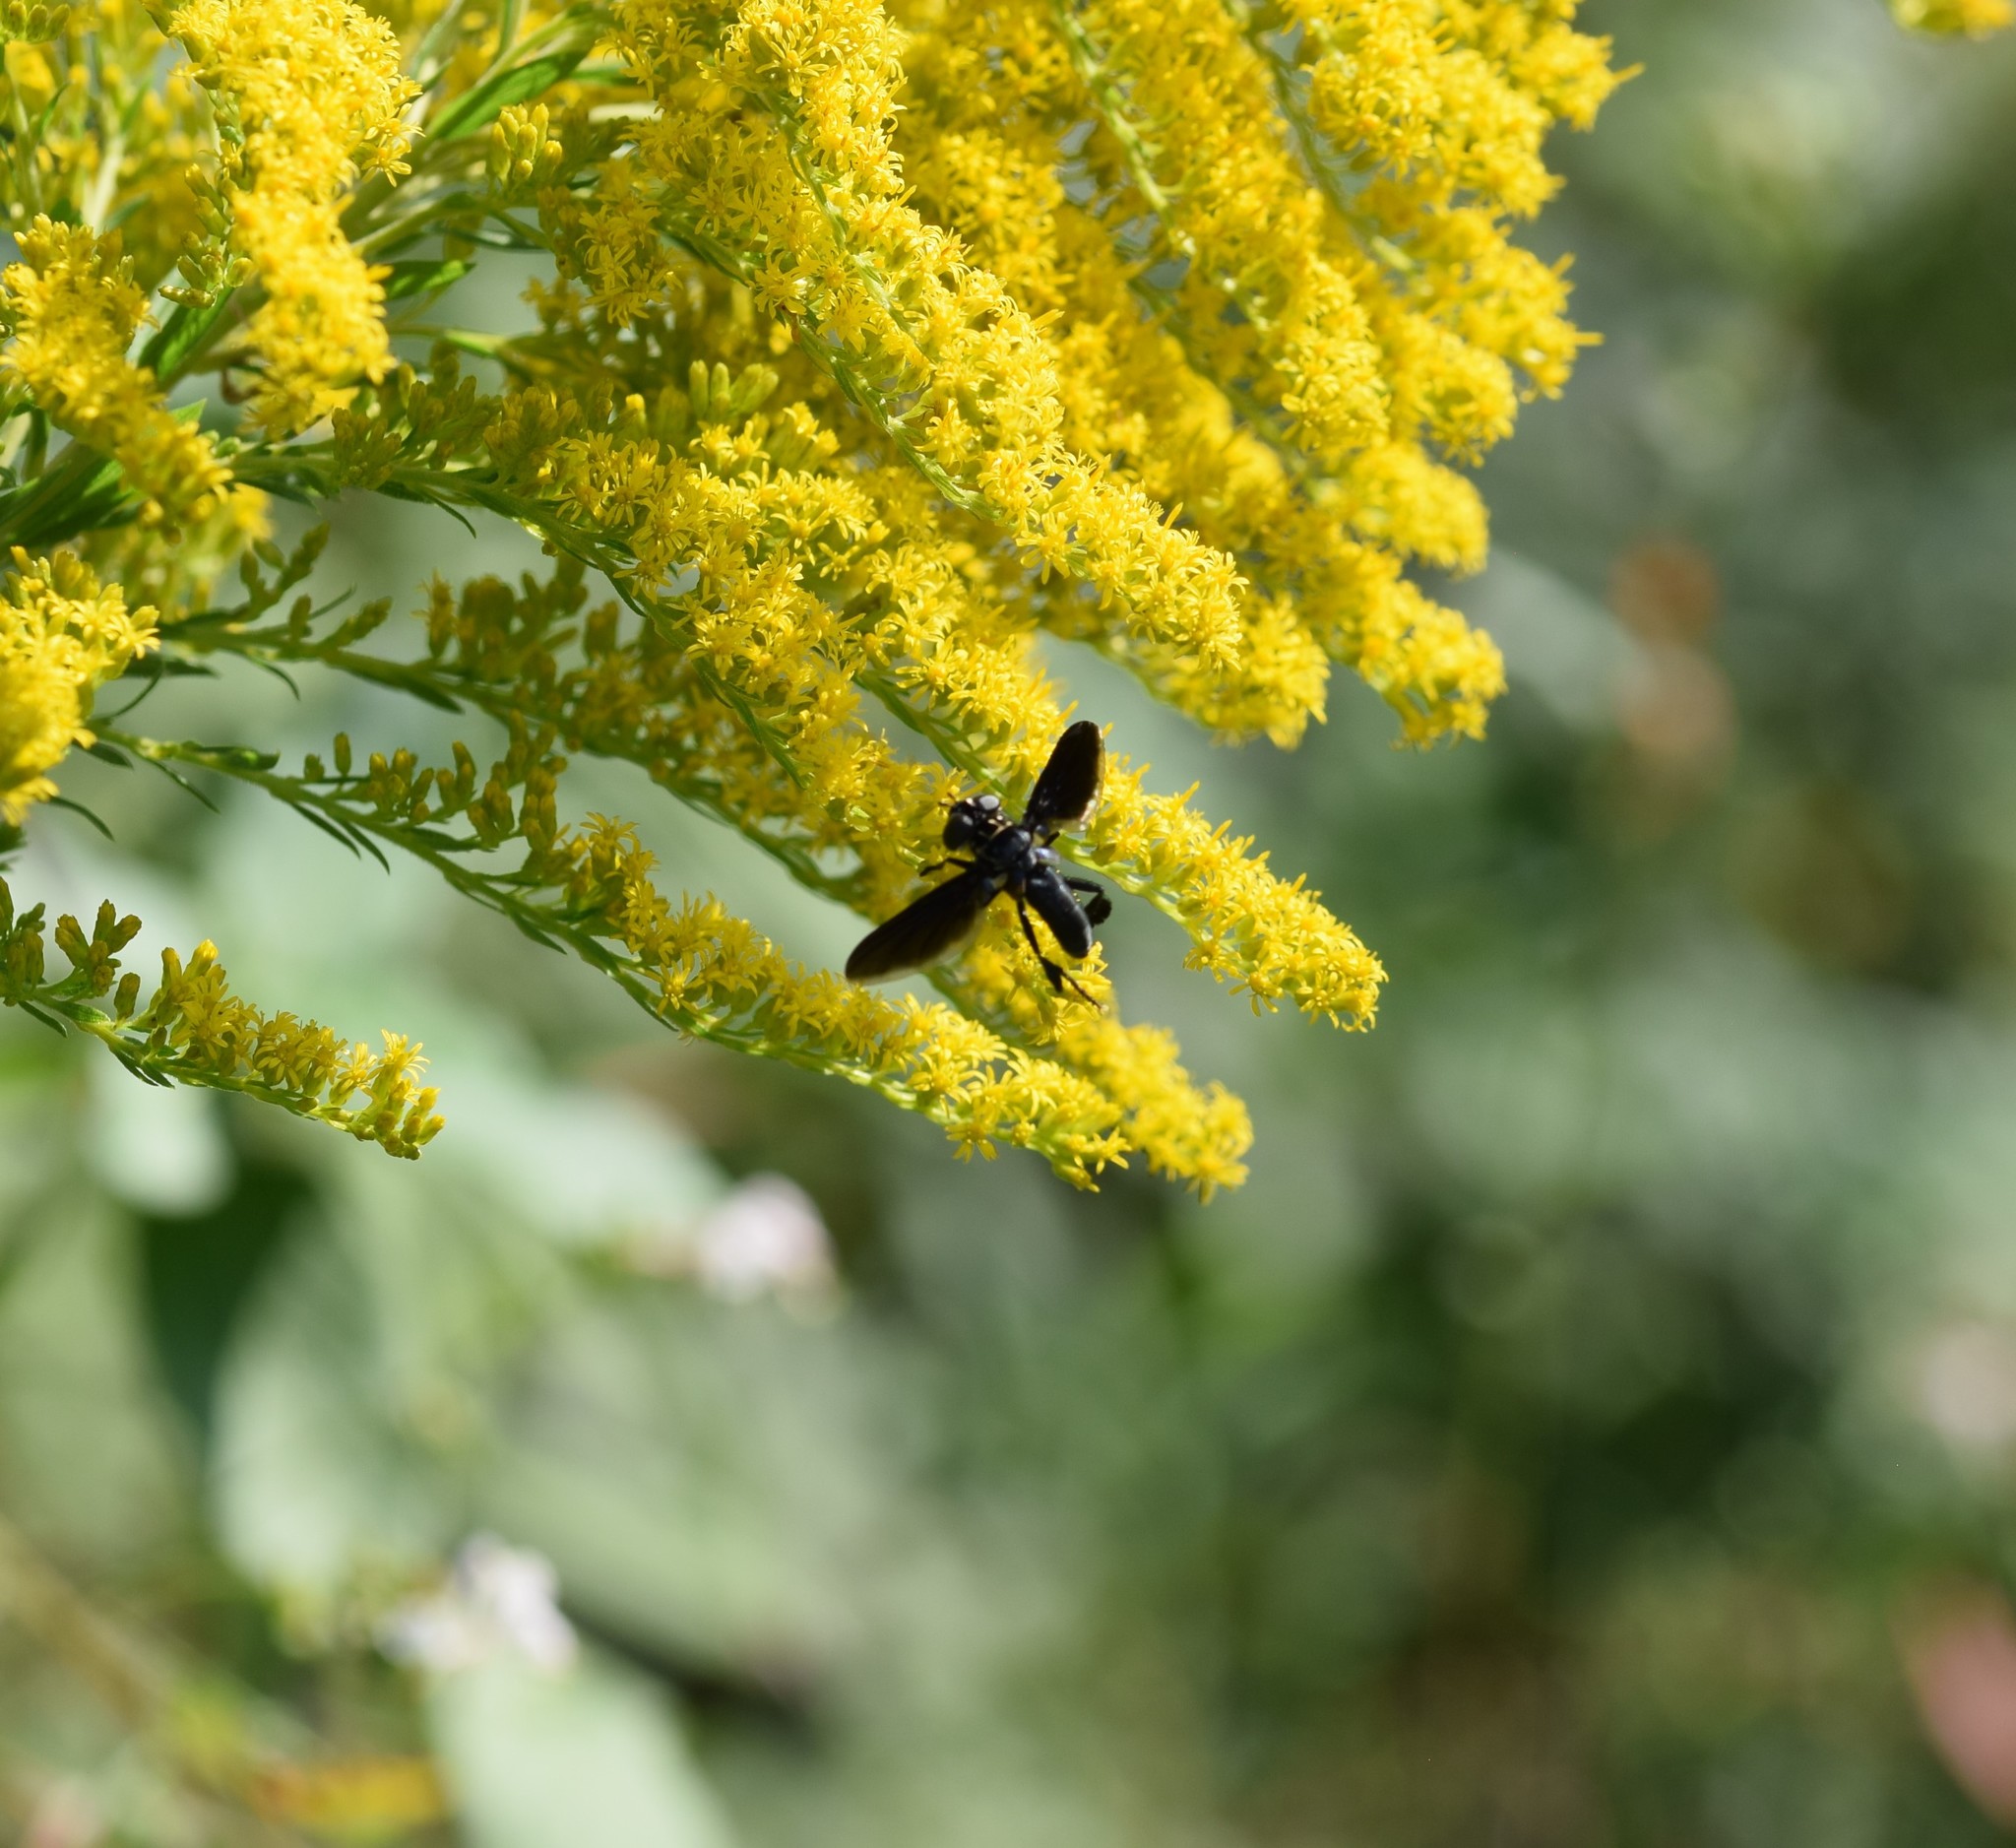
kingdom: Animalia
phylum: Arthropoda
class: Insecta
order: Diptera
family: Tachinidae
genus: Trichopoda
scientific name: Trichopoda lanipes
